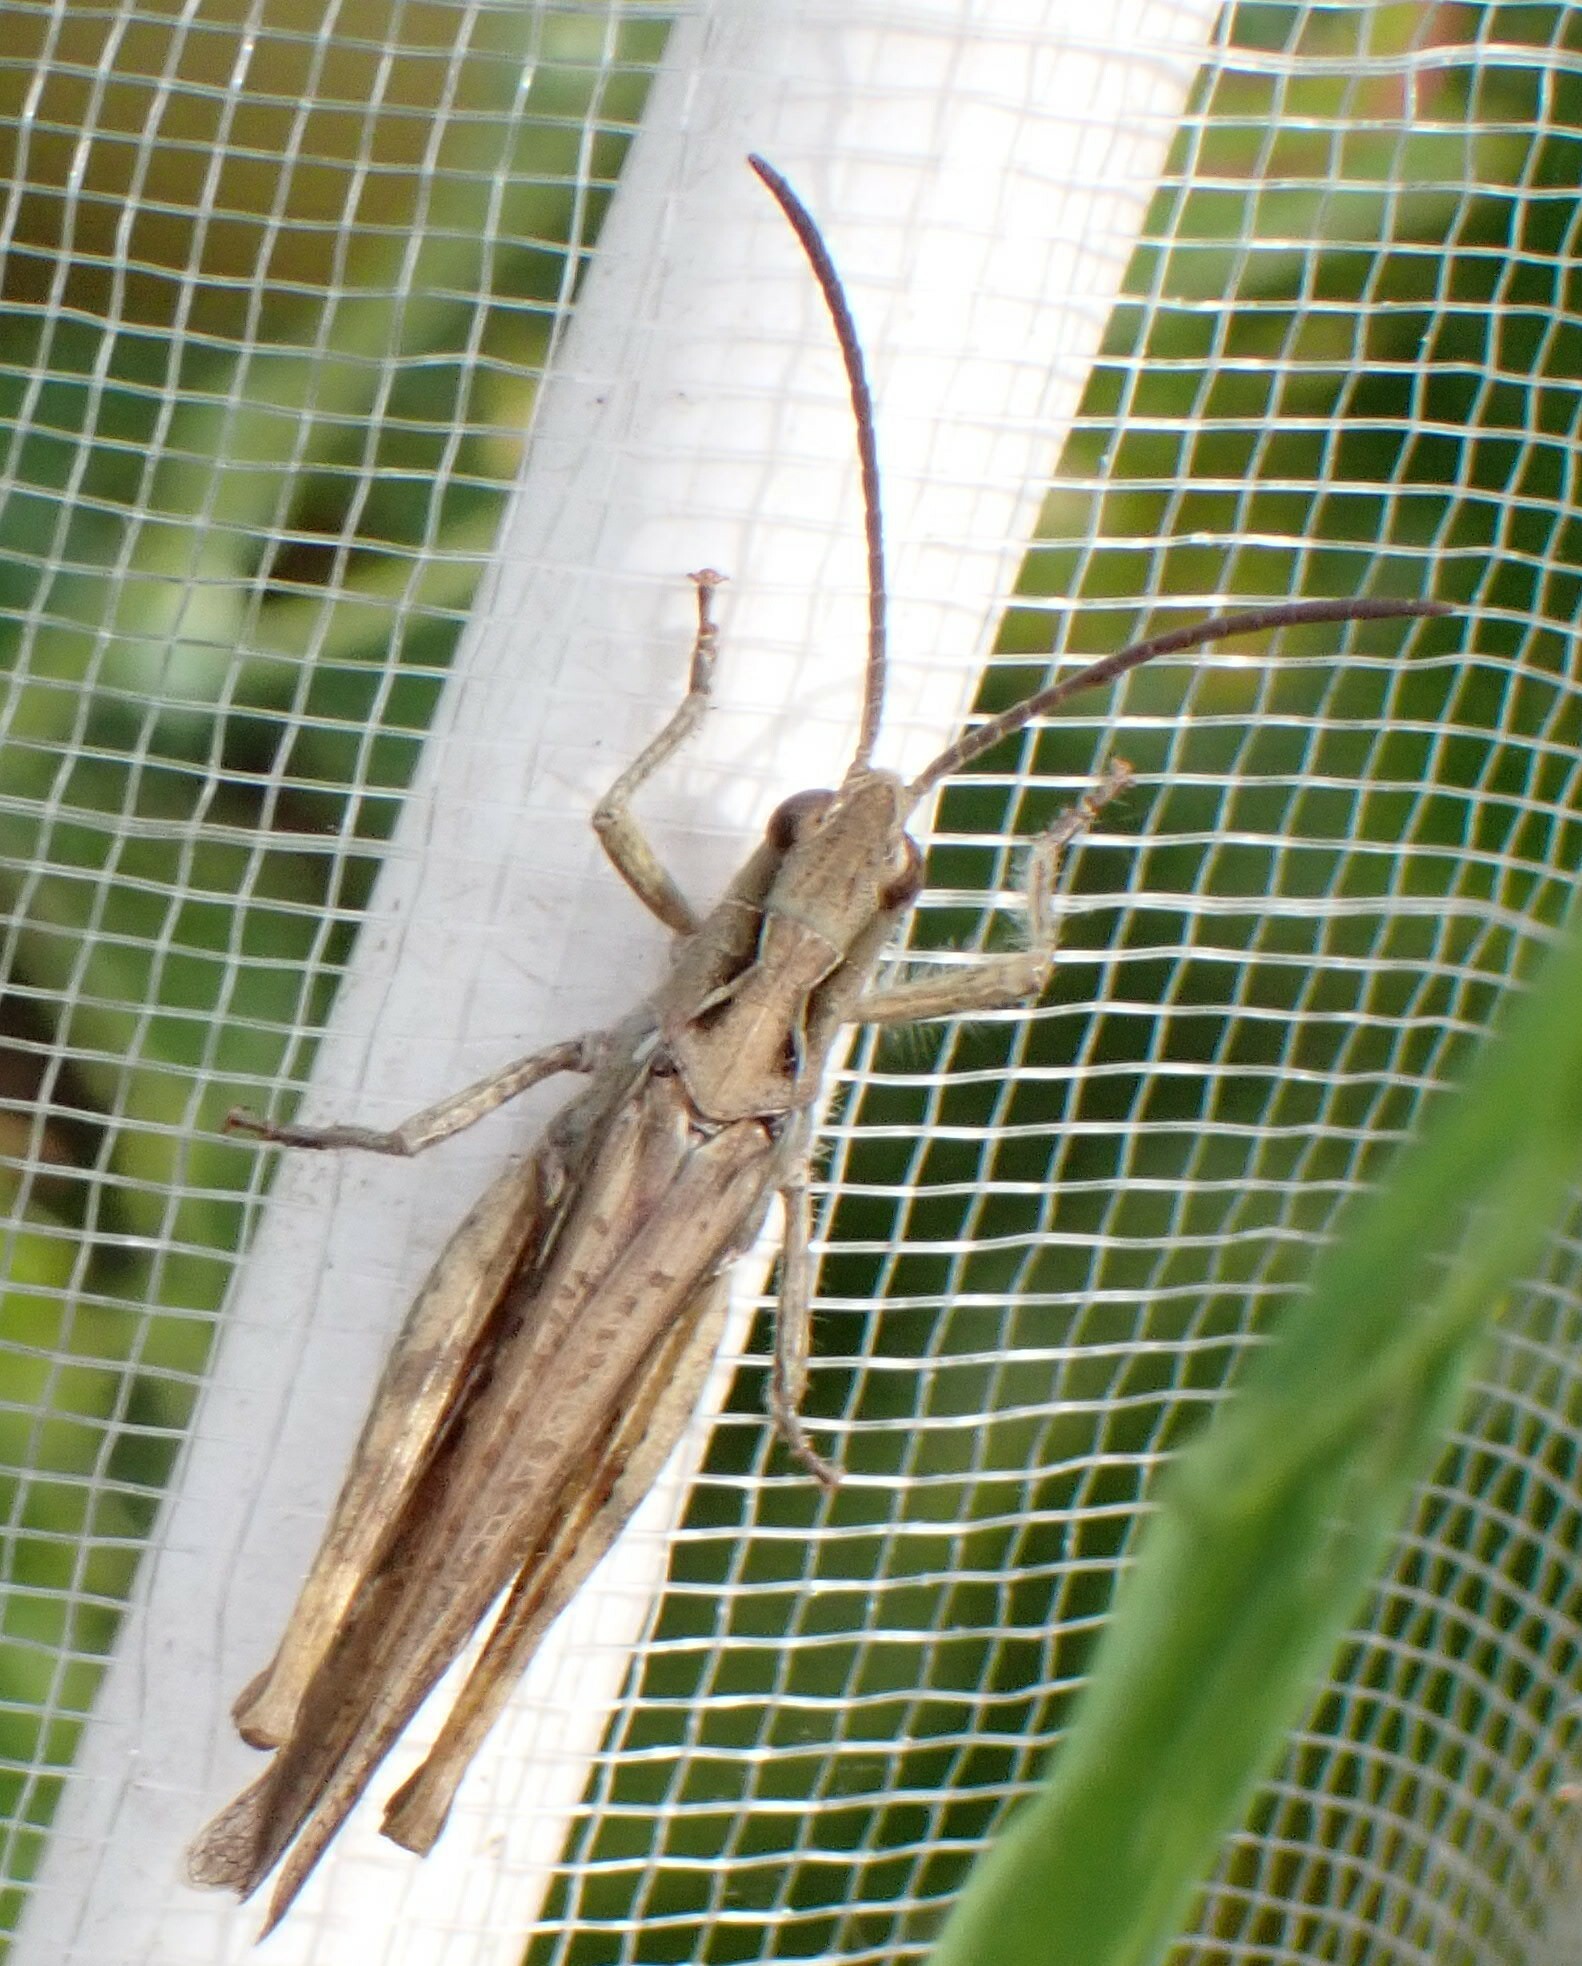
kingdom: Animalia
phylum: Arthropoda
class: Insecta
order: Orthoptera
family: Acrididae
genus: Chorthippus
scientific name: Chorthippus brunneus
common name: Field grasshopper
